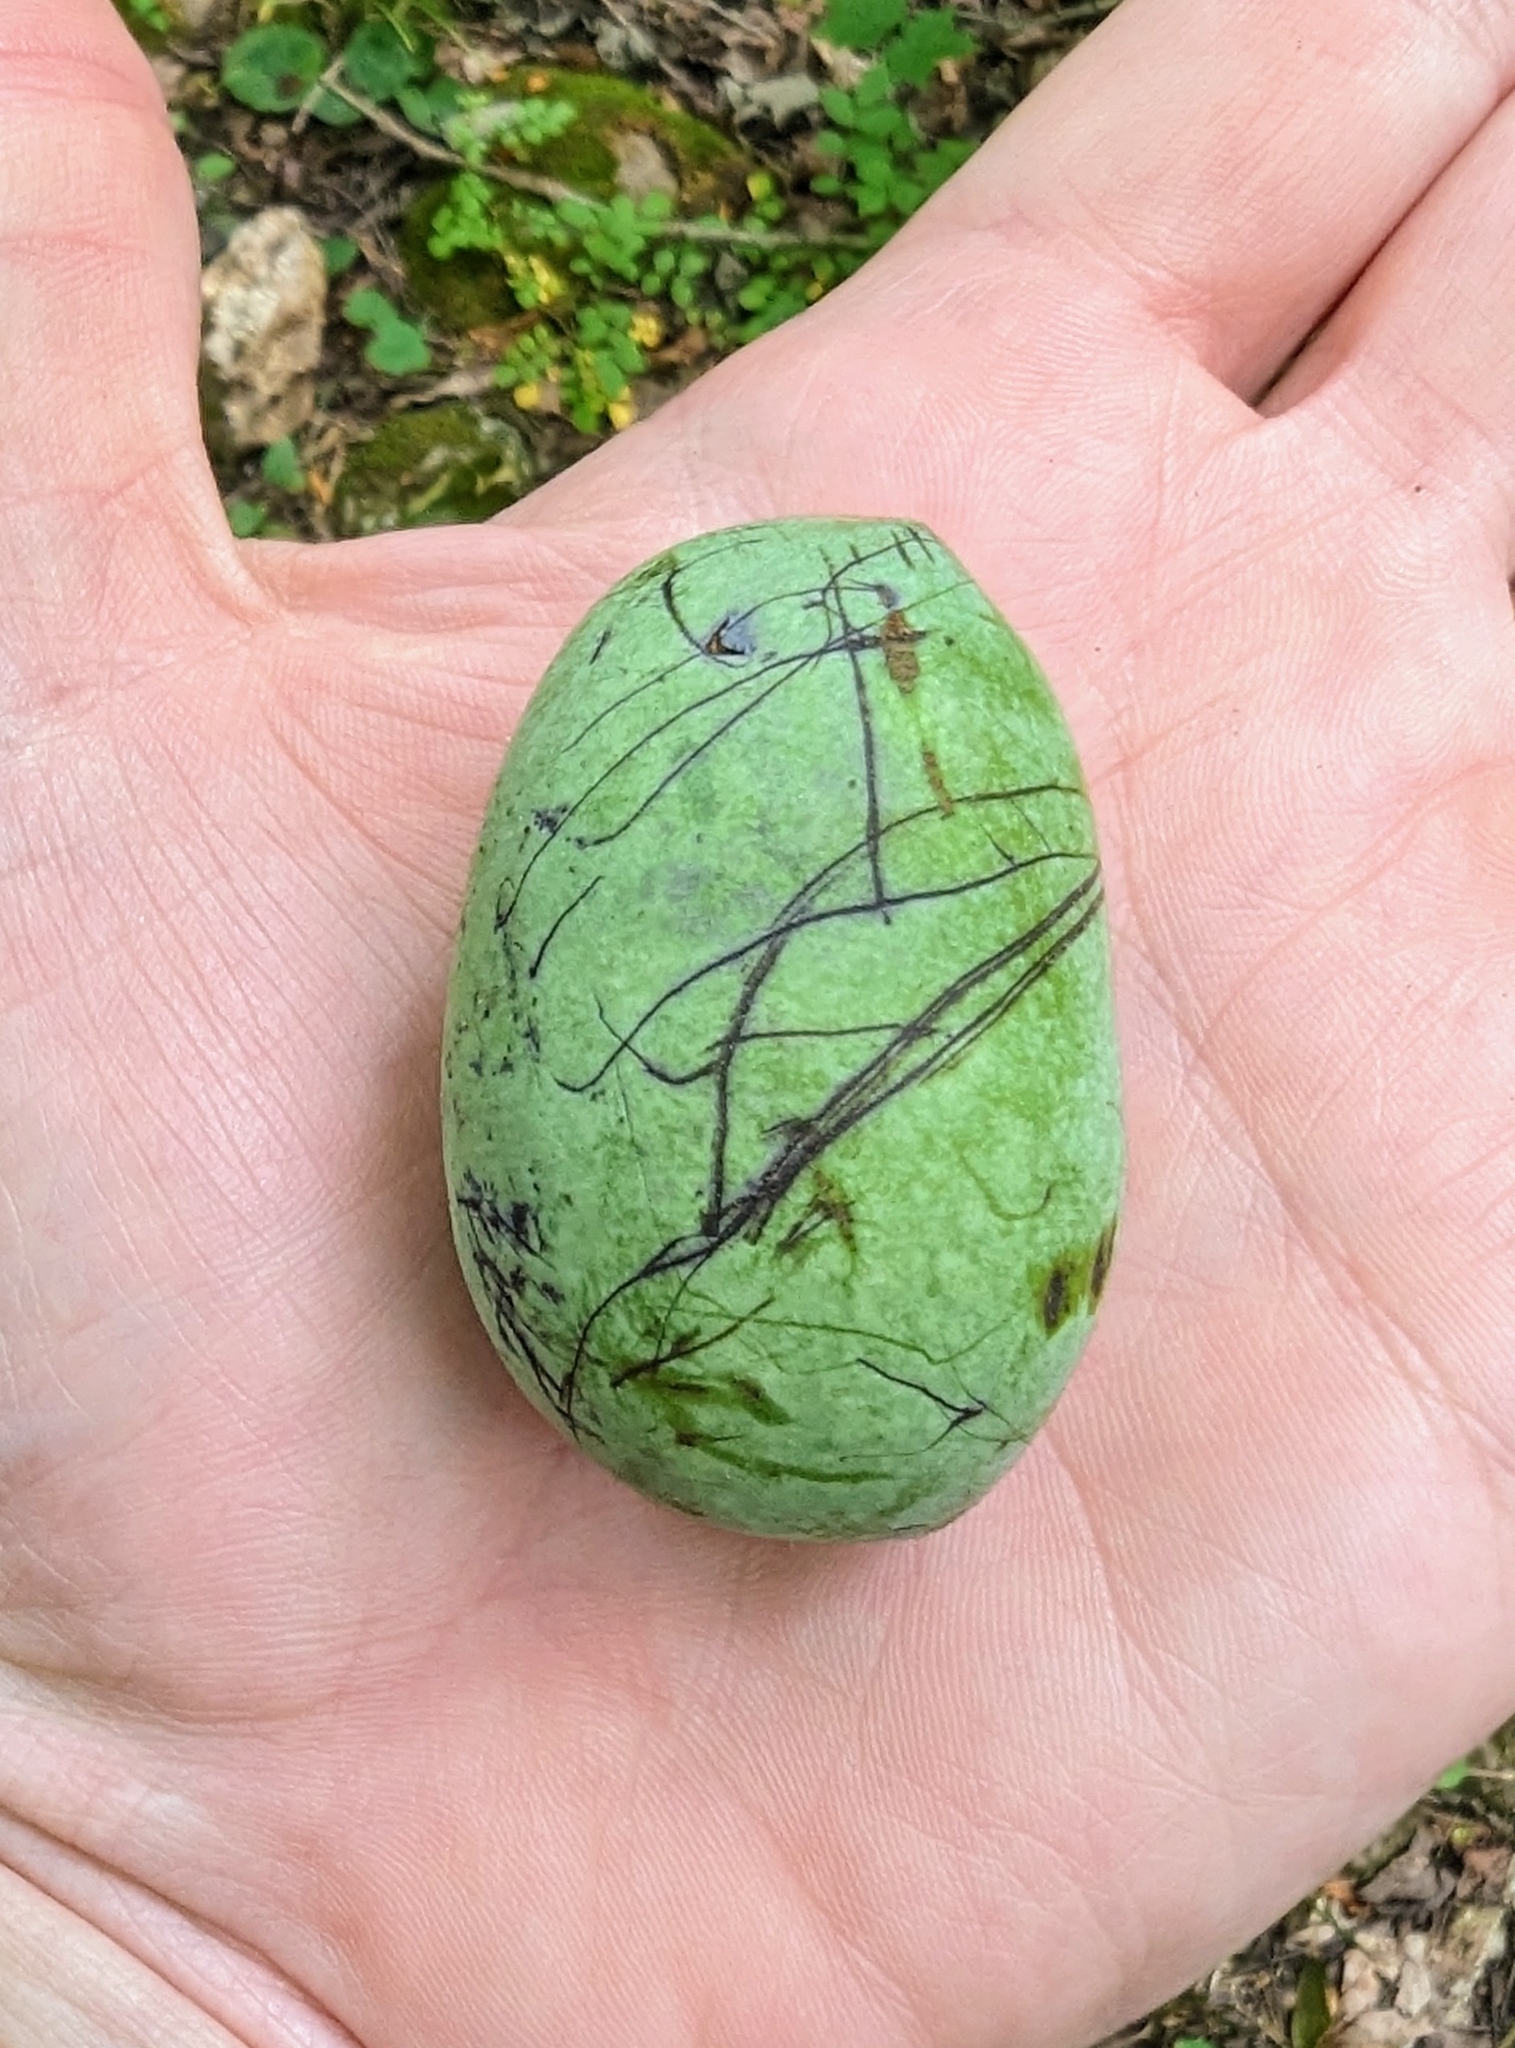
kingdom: Plantae
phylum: Tracheophyta
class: Magnoliopsida
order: Magnoliales
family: Annonaceae
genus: Asimina
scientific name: Asimina triloba
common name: Dog-banana
